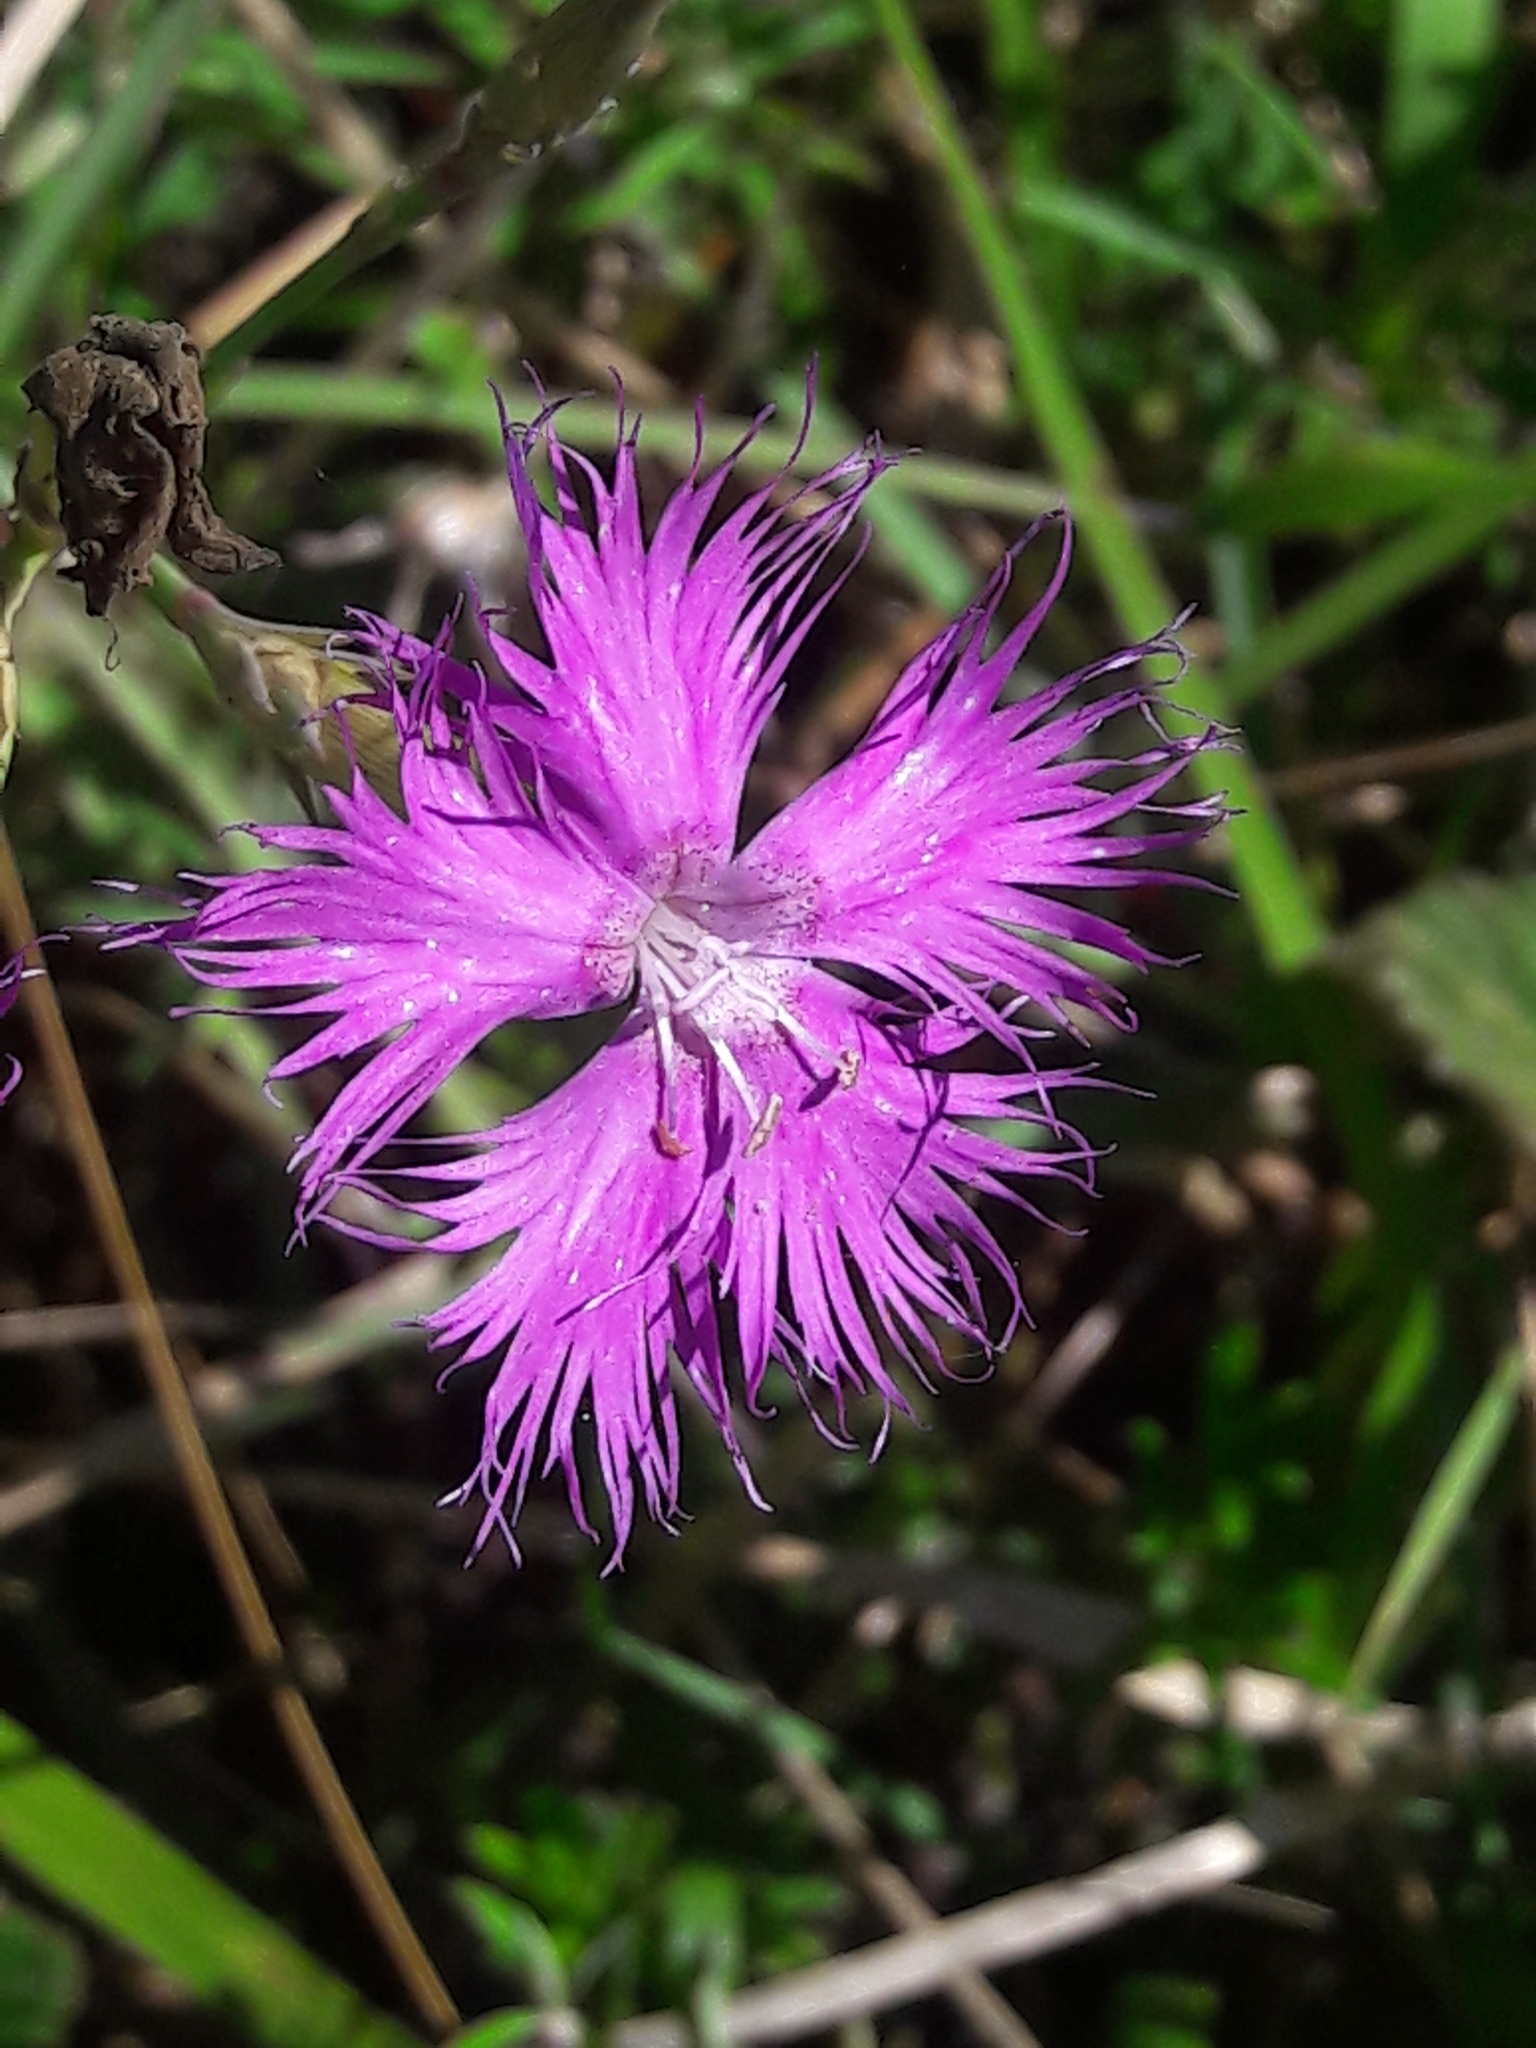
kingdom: Plantae
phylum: Tracheophyta
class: Magnoliopsida
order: Caryophyllales
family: Caryophyllaceae
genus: Dianthus
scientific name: Dianthus hyssopifolius
